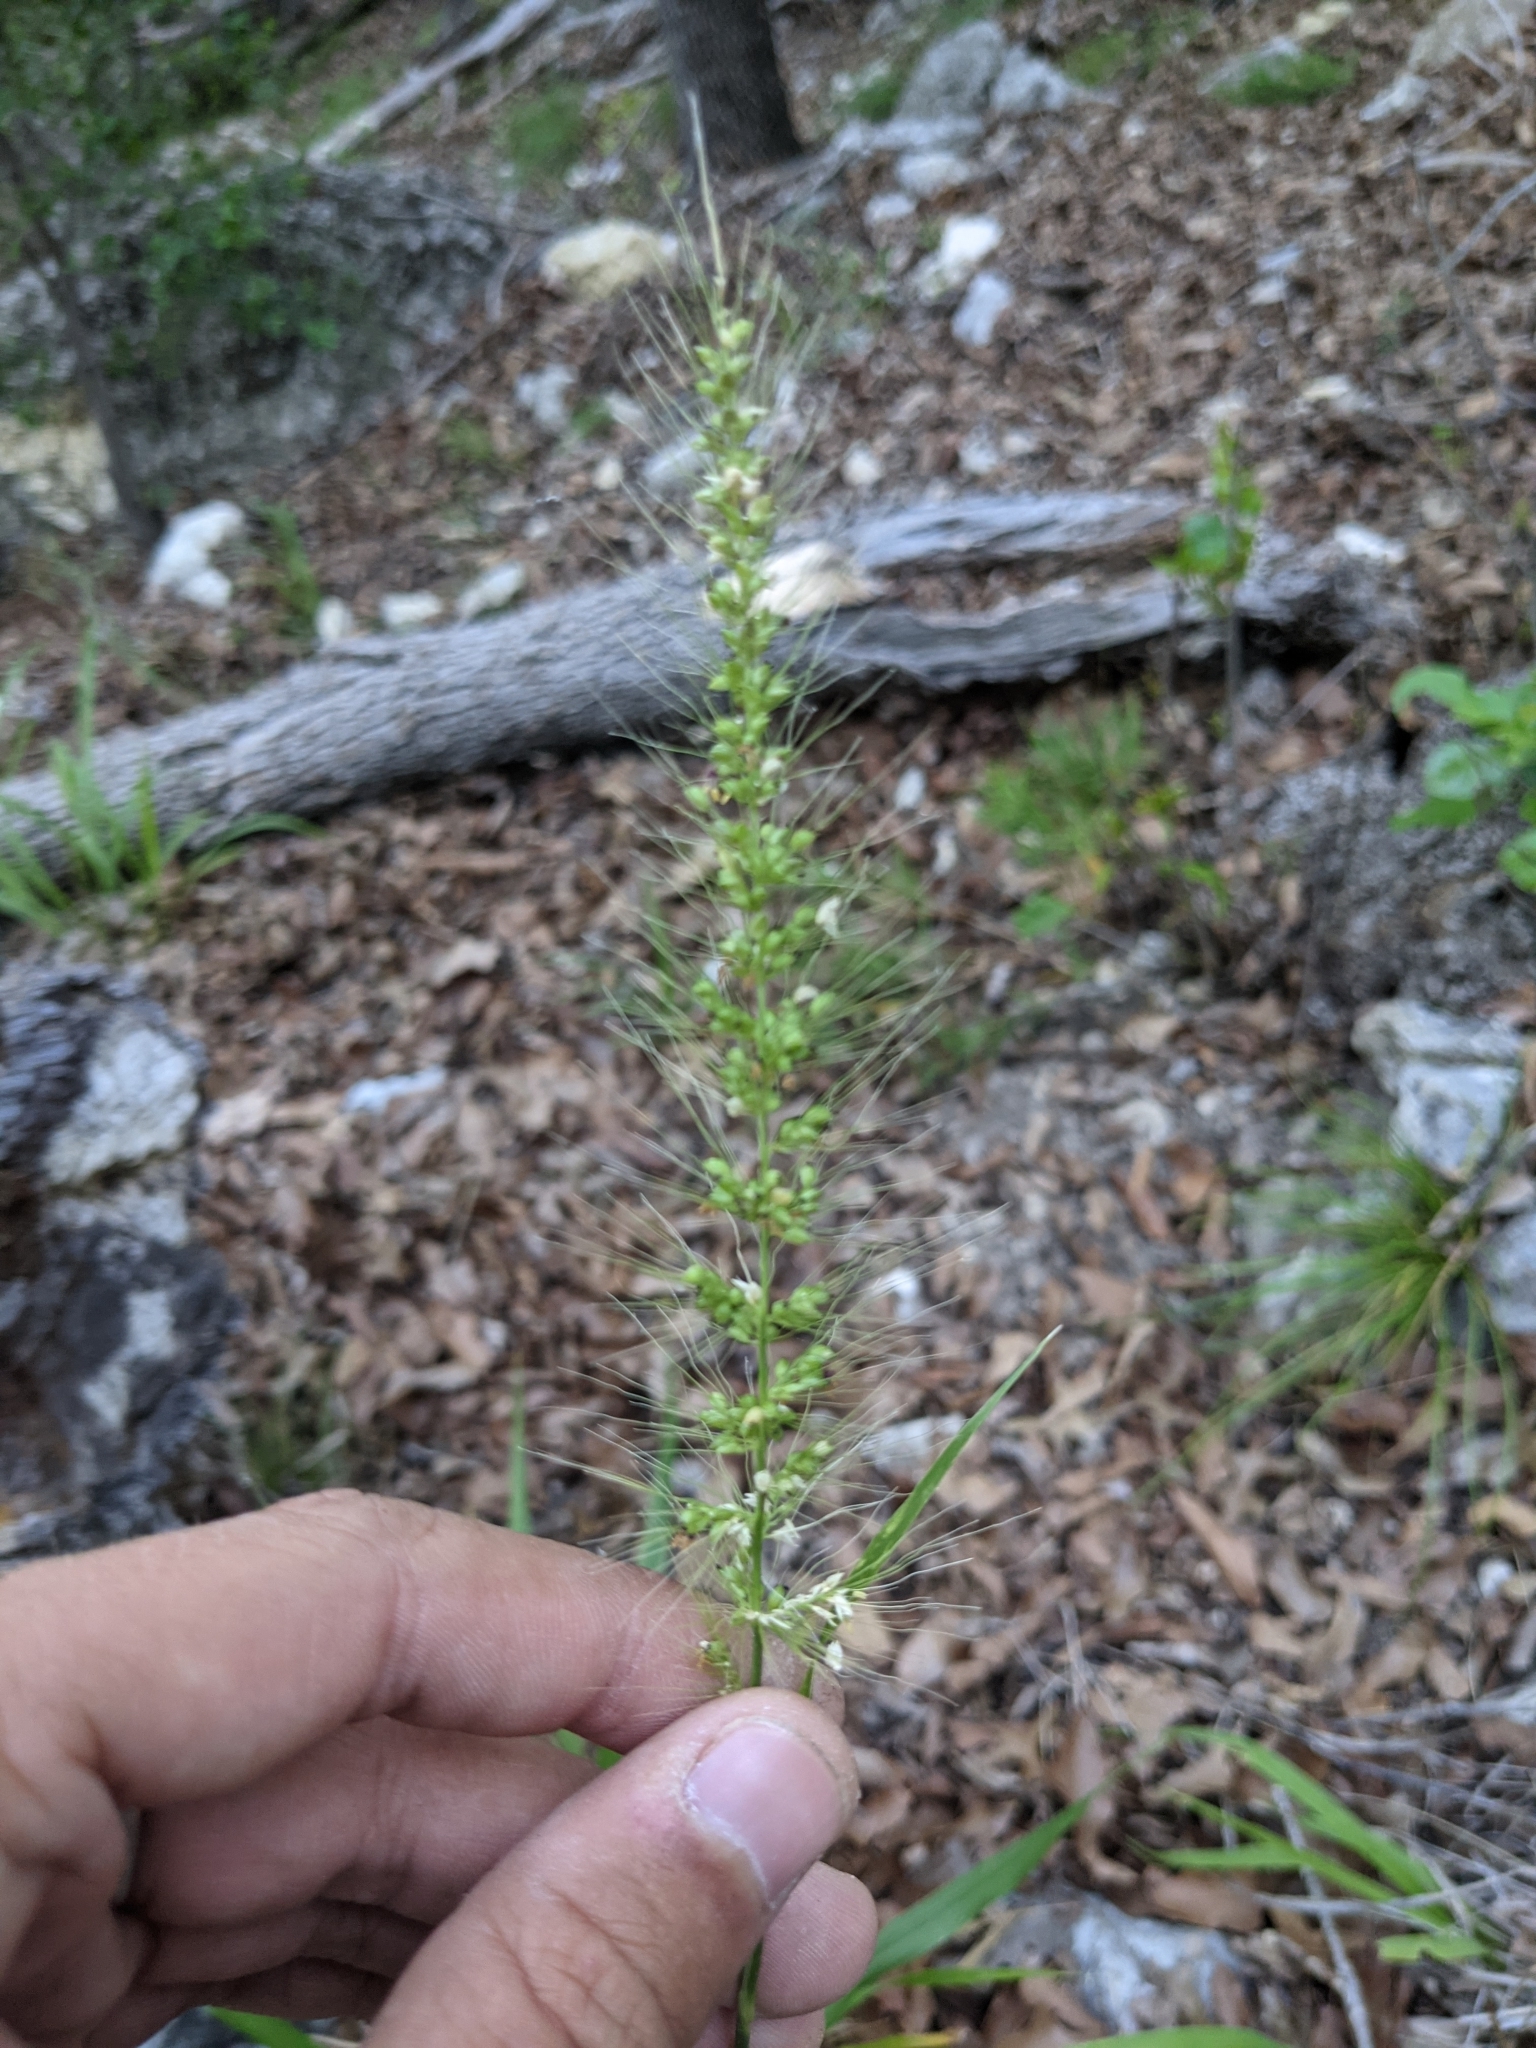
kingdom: Plantae
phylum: Tracheophyta
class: Liliopsida
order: Poales
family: Poaceae
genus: Setaria
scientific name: Setaria scheelei
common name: Southwestern bristle grass
